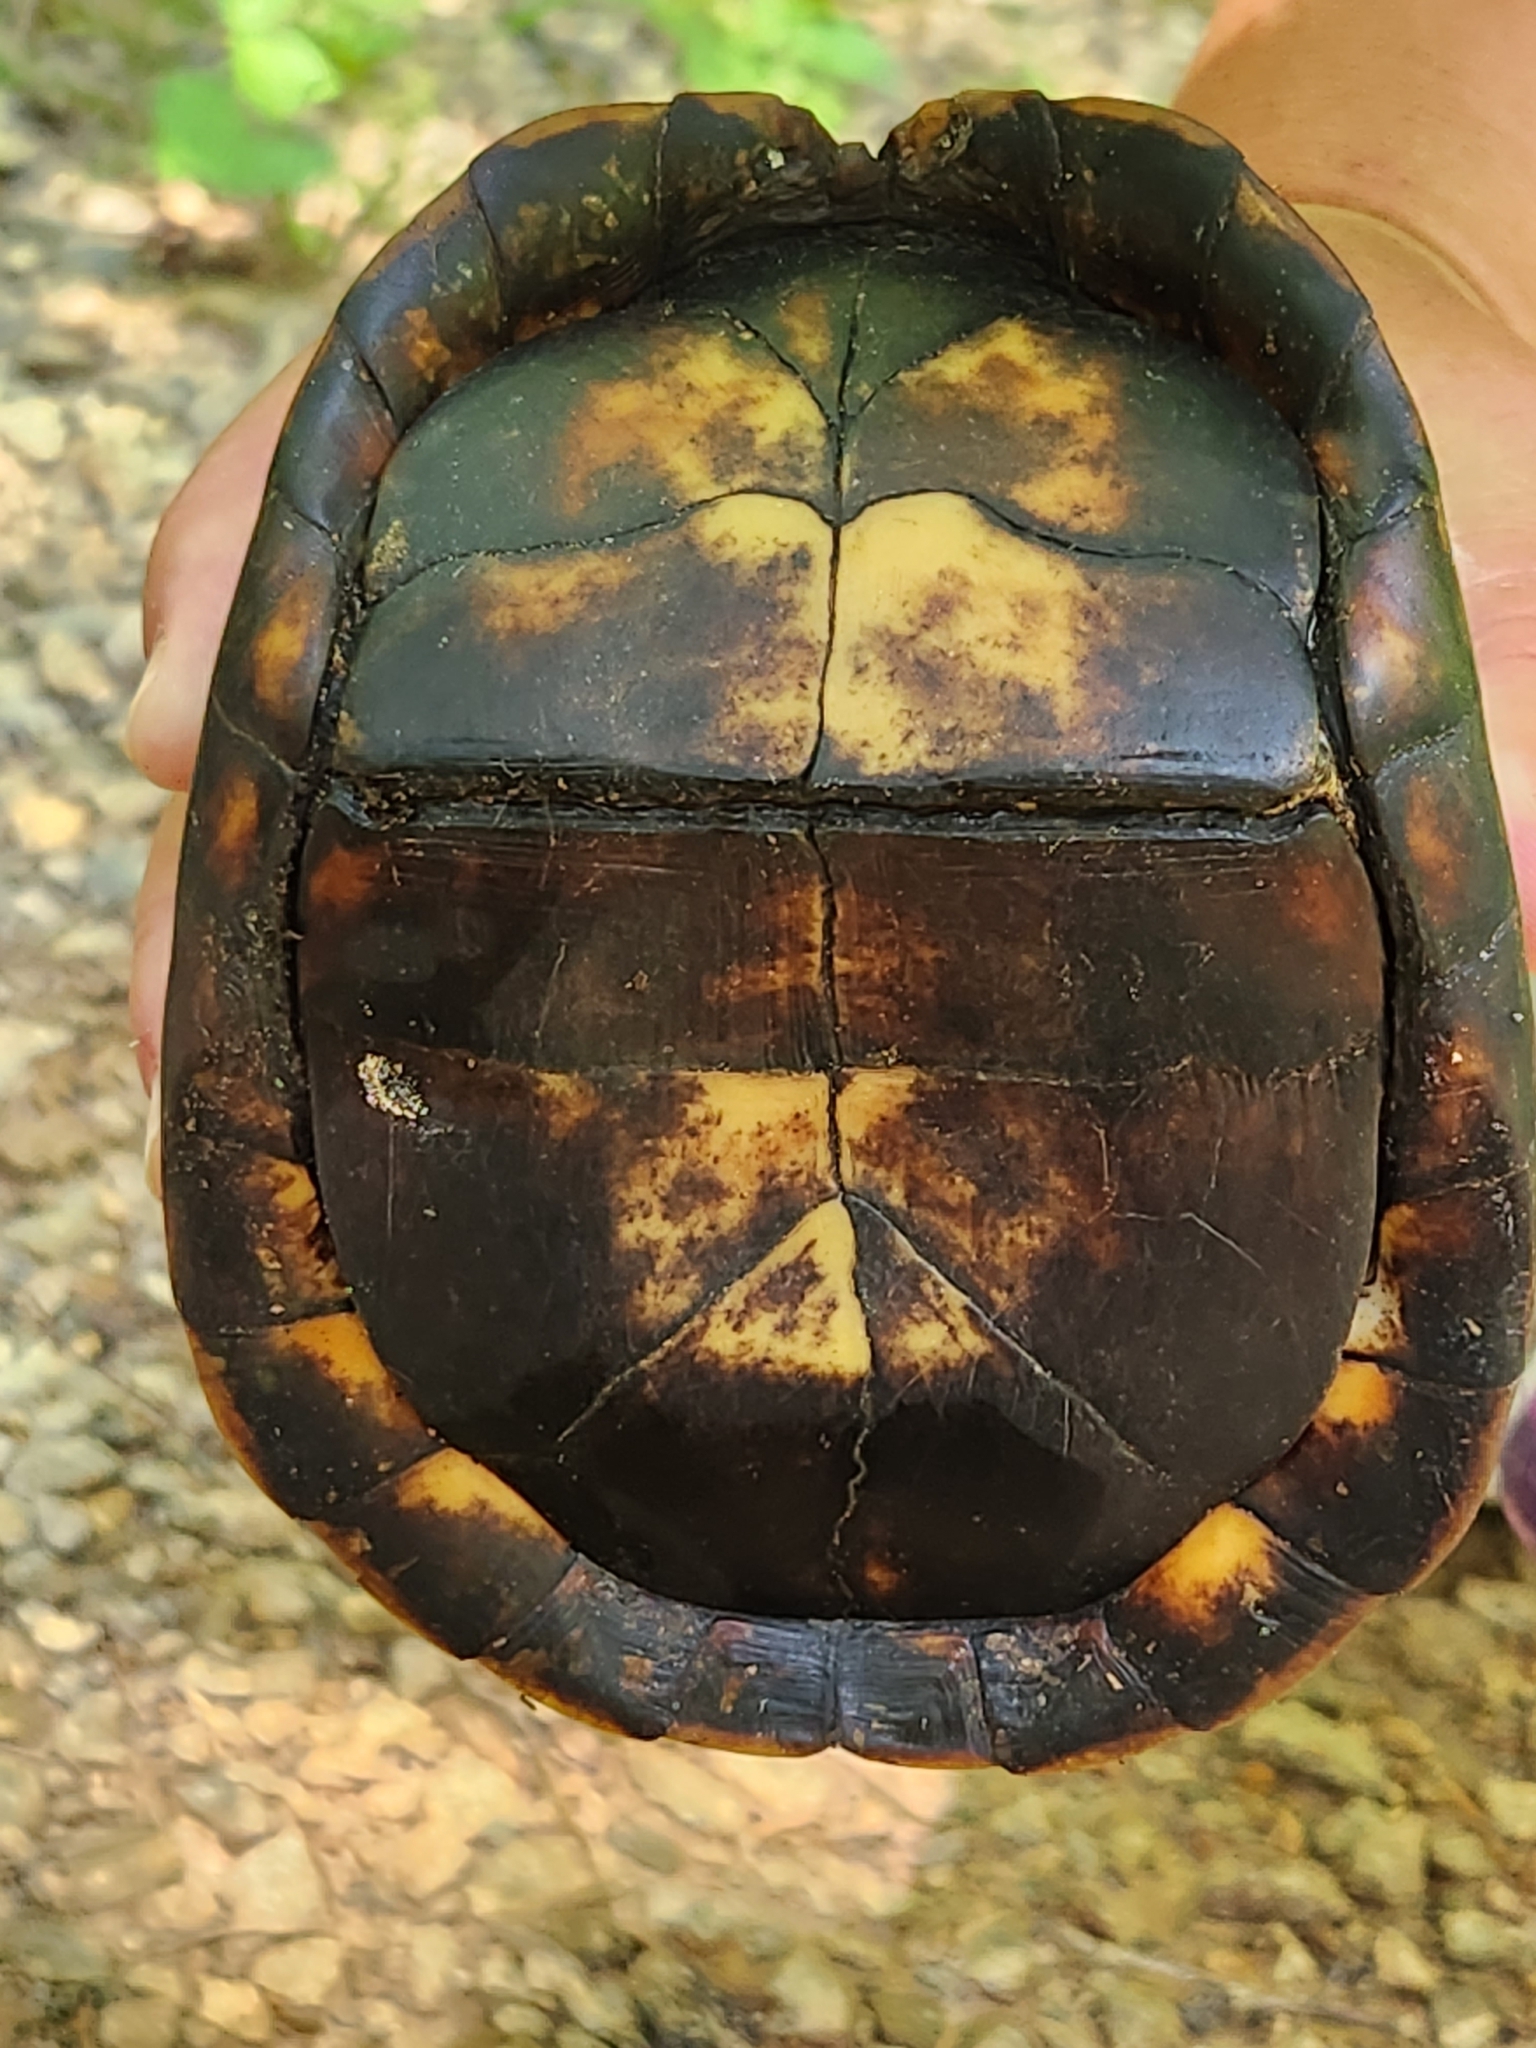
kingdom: Animalia
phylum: Chordata
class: Testudines
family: Emydidae
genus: Terrapene
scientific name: Terrapene carolina
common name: Common box turtle
